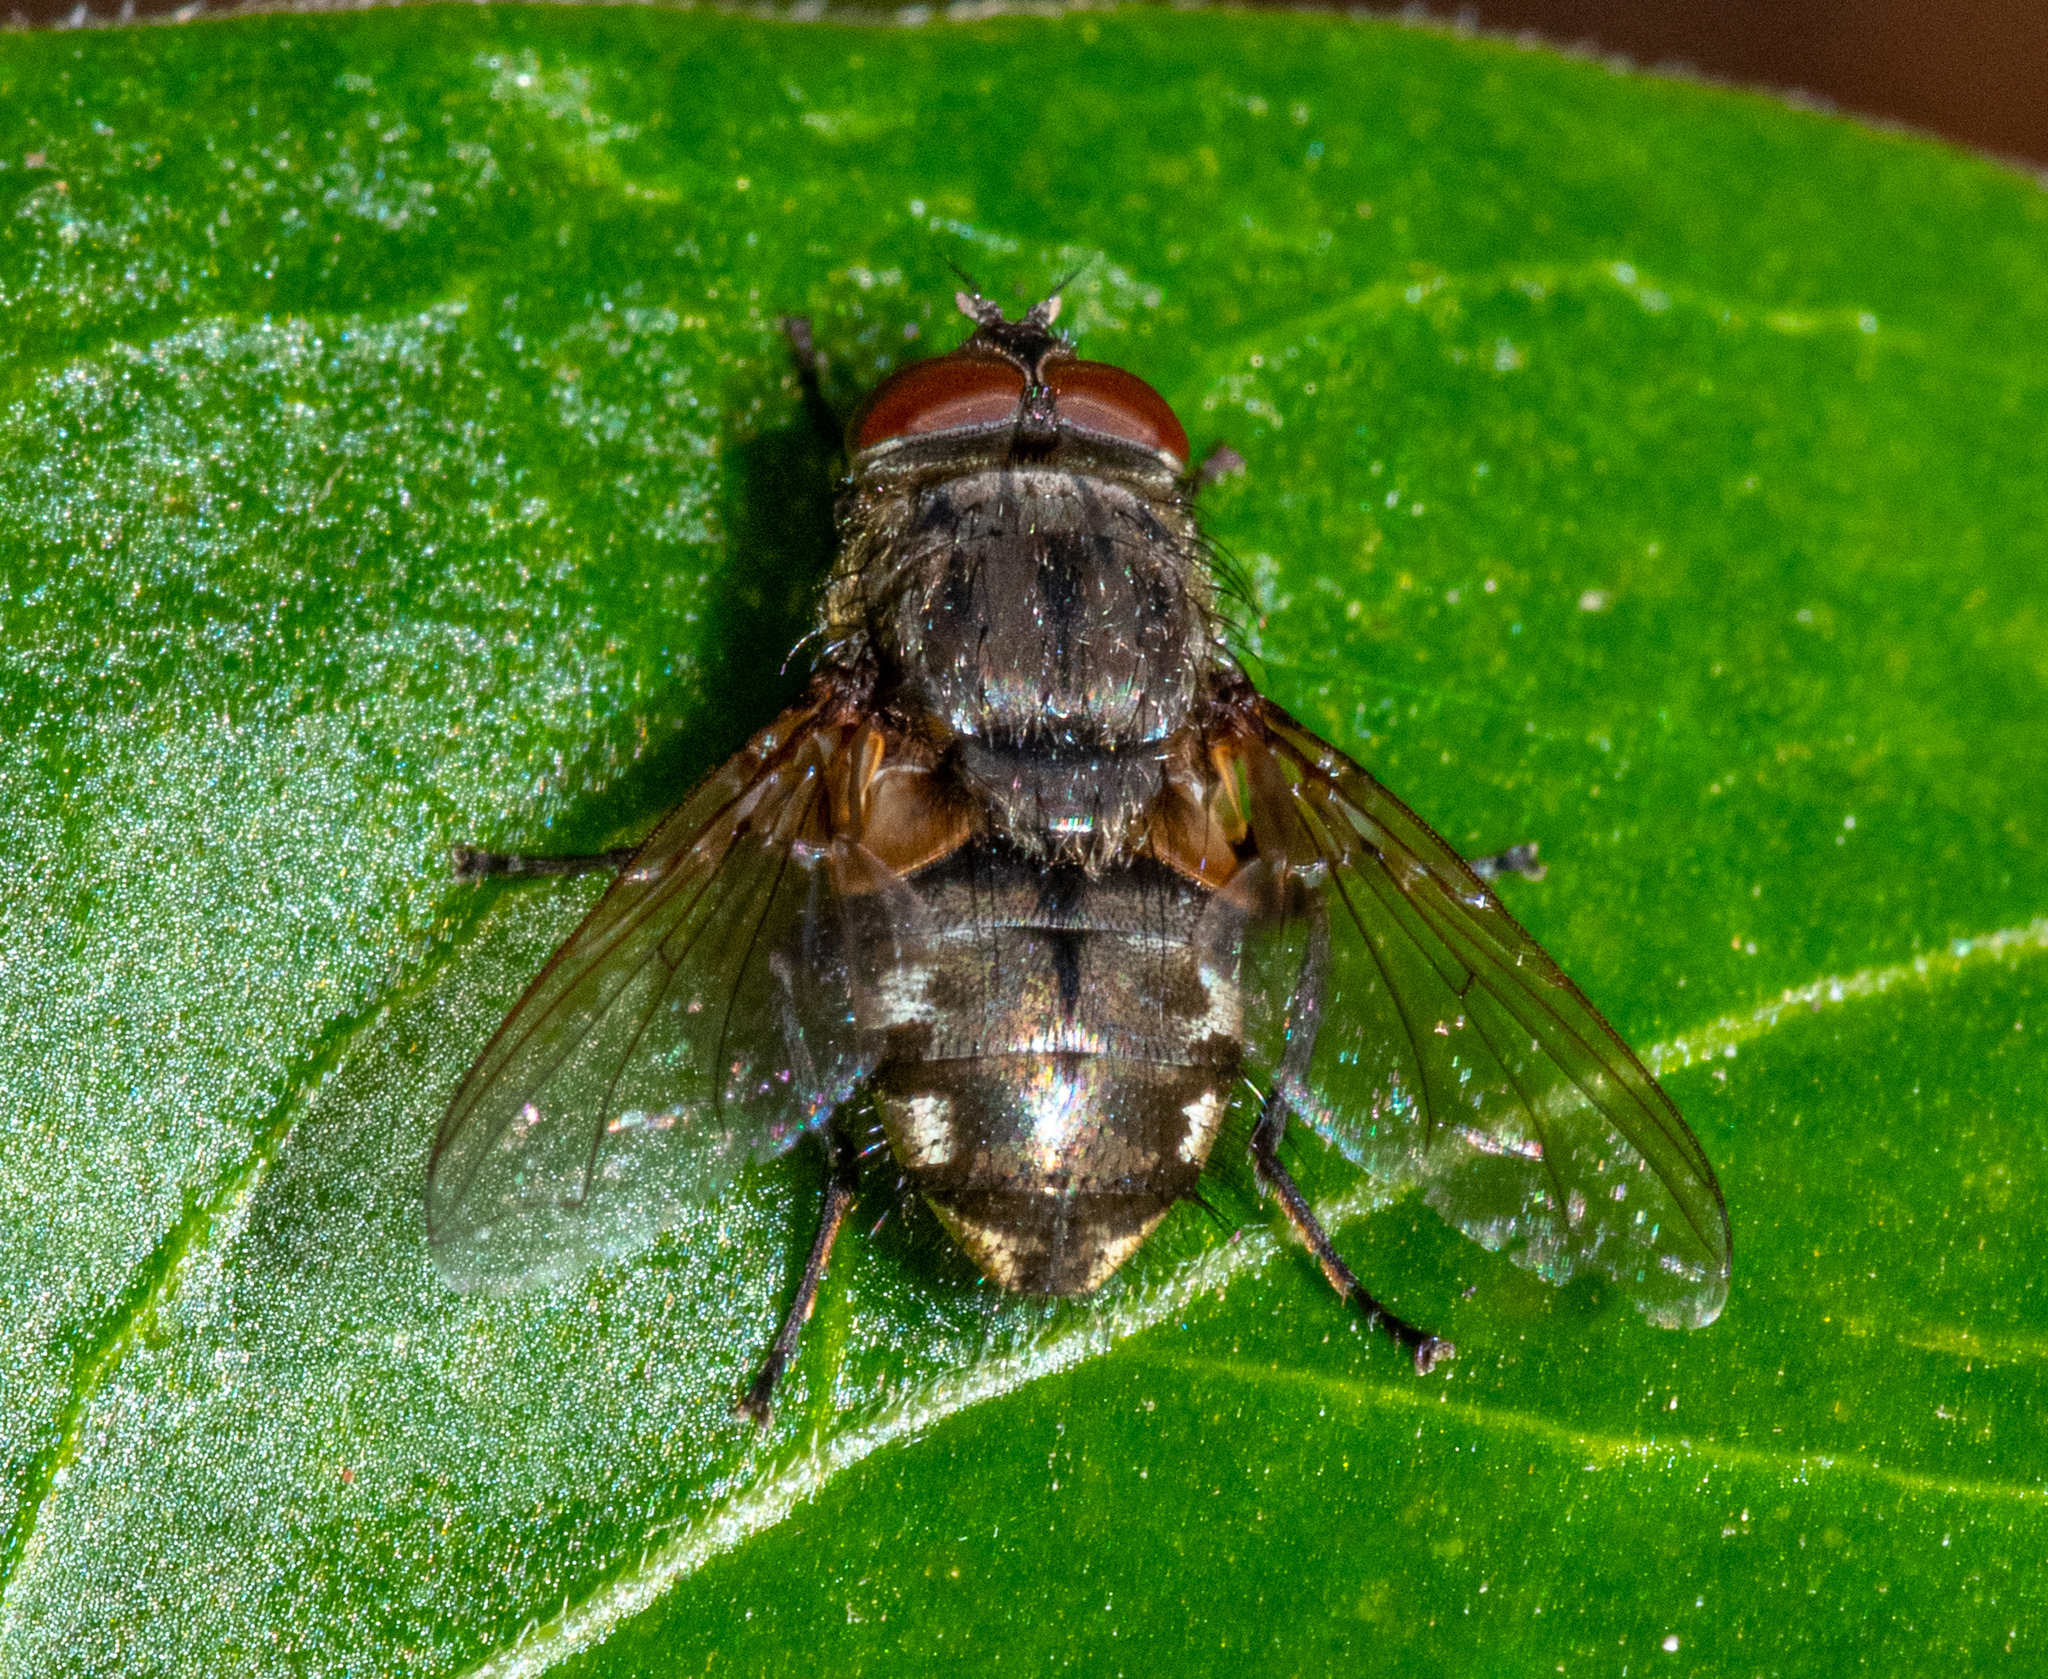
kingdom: Animalia
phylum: Arthropoda
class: Insecta
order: Diptera
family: Polleniidae
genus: Pollenia
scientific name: Pollenia
